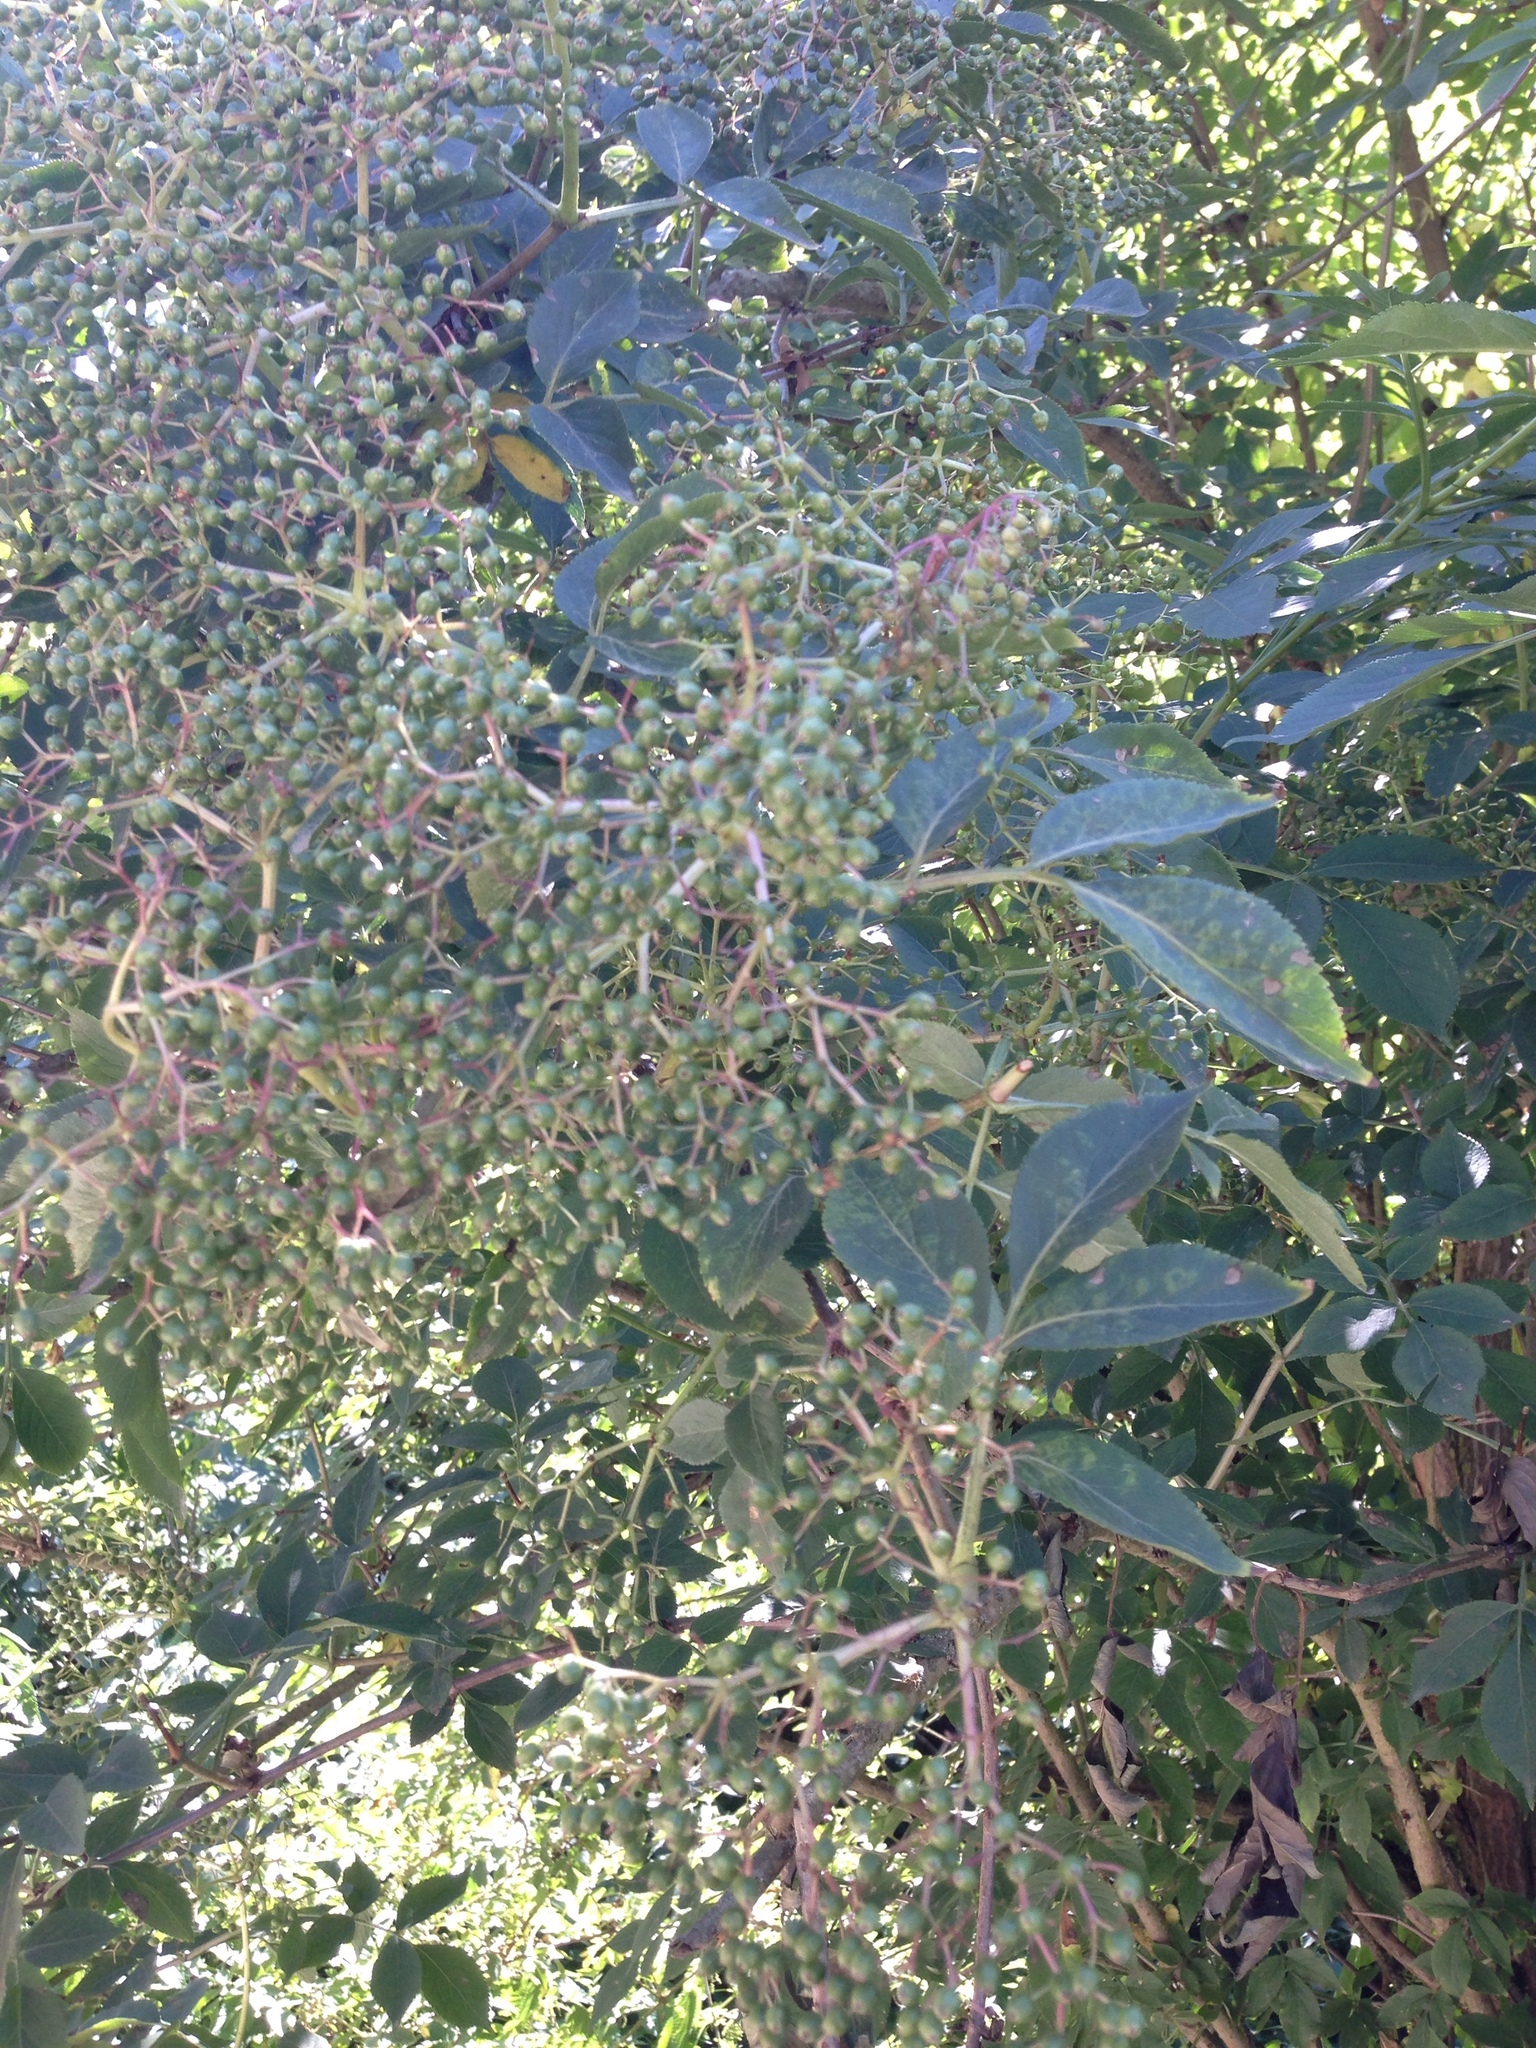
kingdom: Plantae
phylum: Tracheophyta
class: Magnoliopsida
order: Dipsacales
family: Viburnaceae
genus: Sambucus
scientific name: Sambucus nigra
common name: Elder
